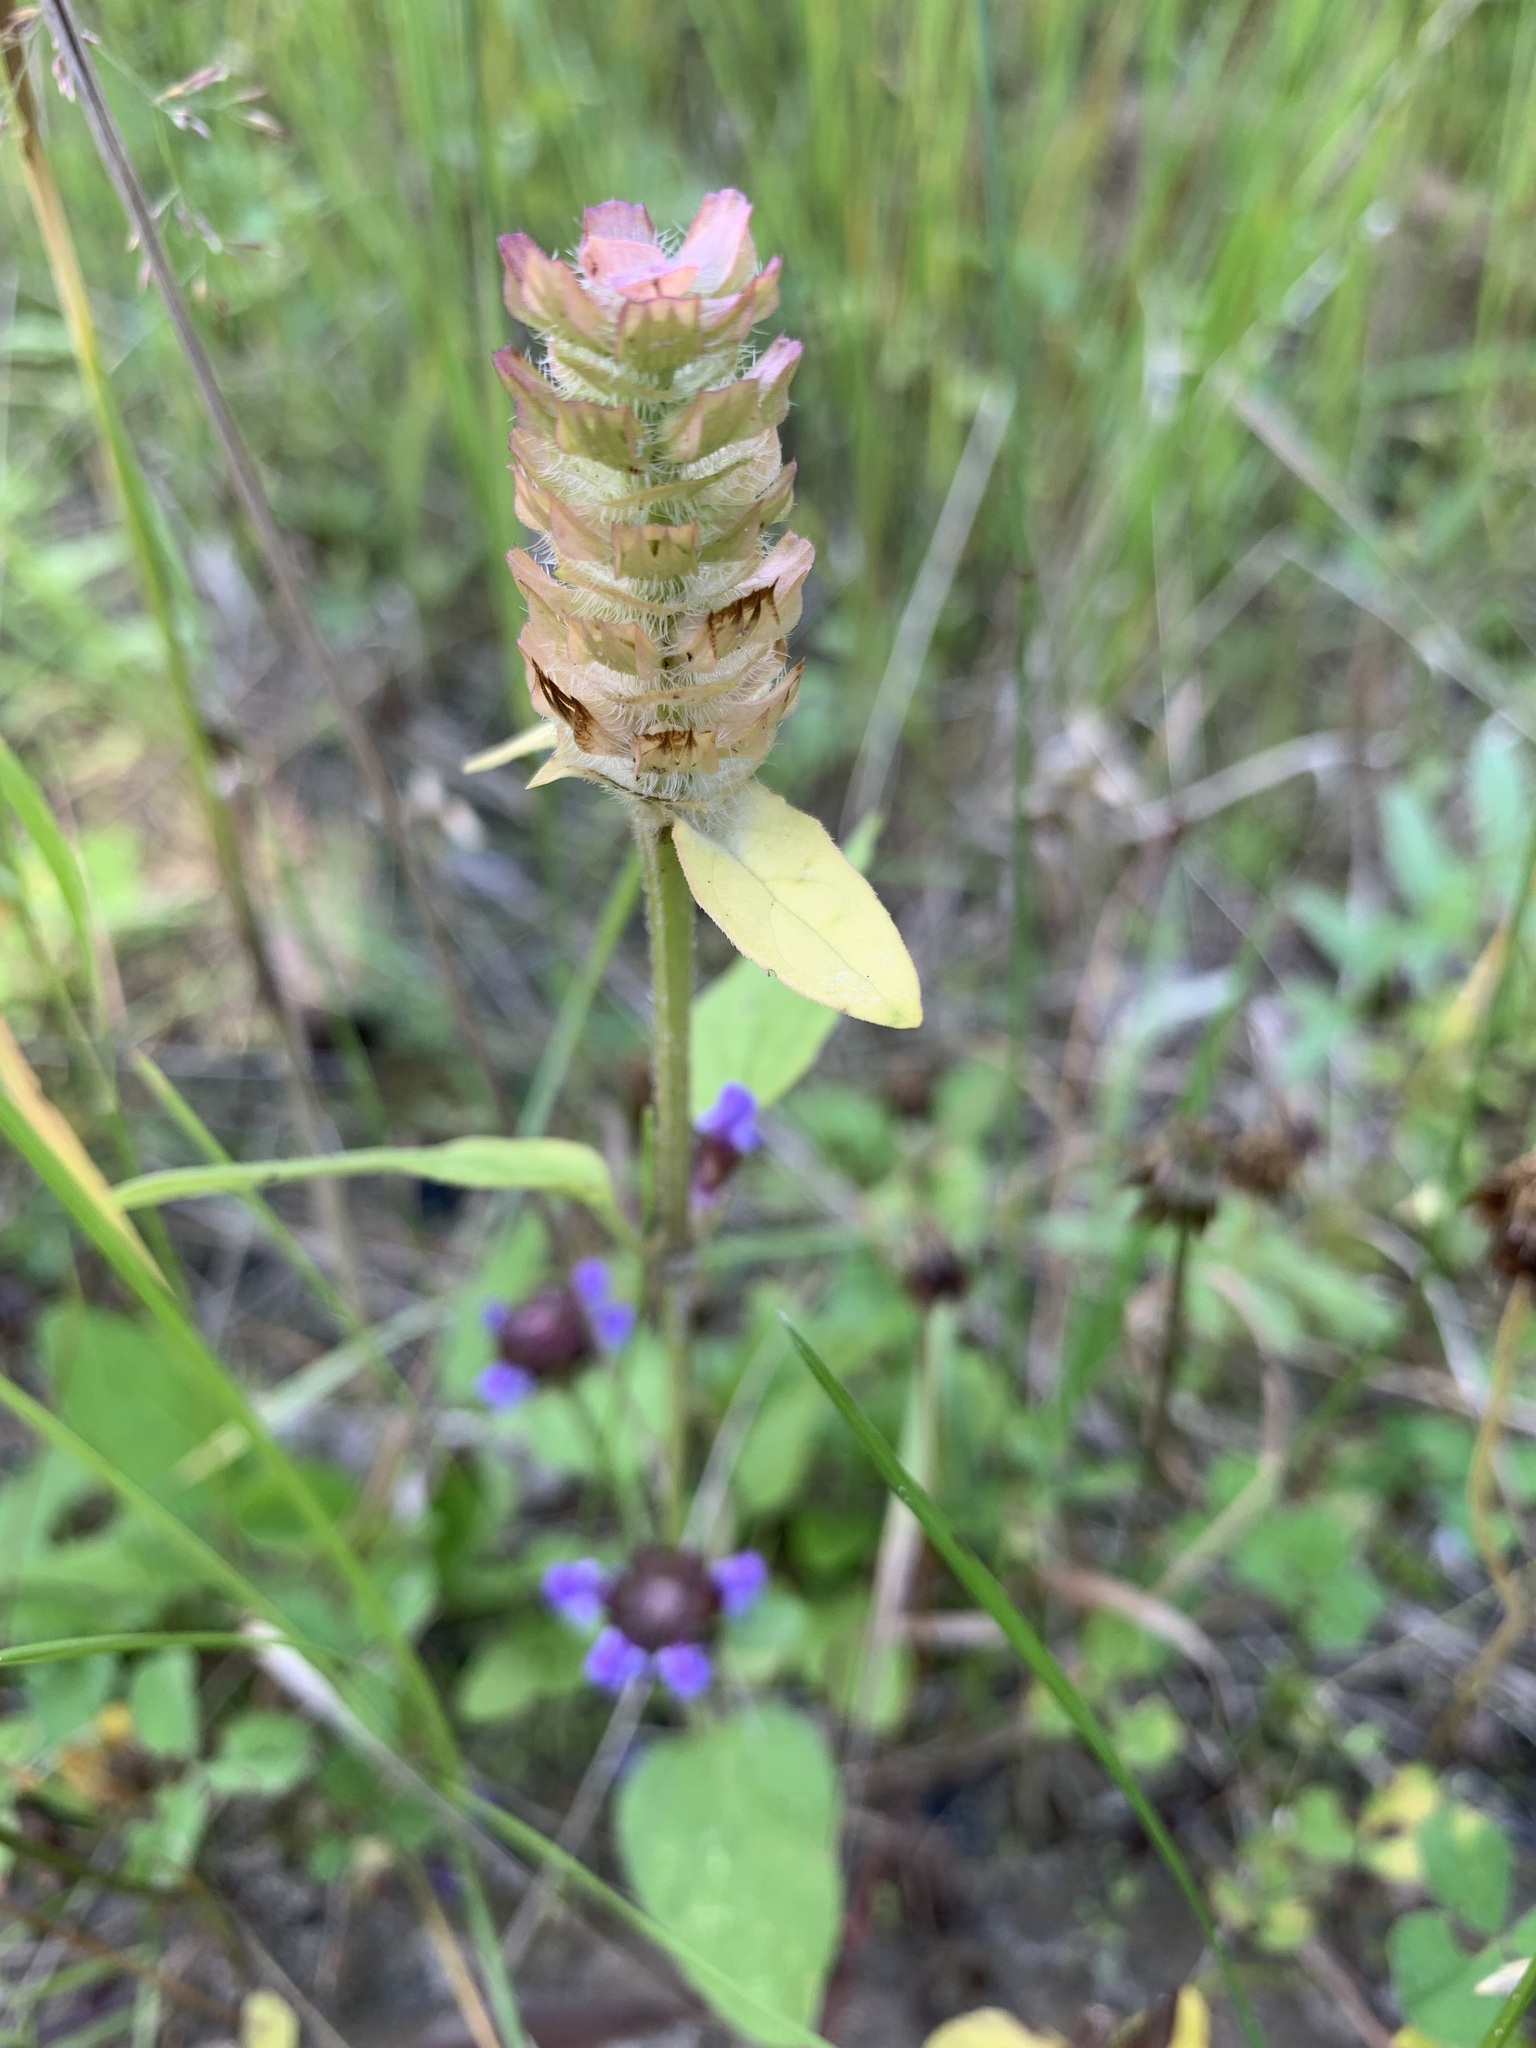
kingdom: Plantae
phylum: Tracheophyta
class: Magnoliopsida
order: Lamiales
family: Lamiaceae
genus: Prunella
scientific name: Prunella vulgaris
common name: Heal-all
